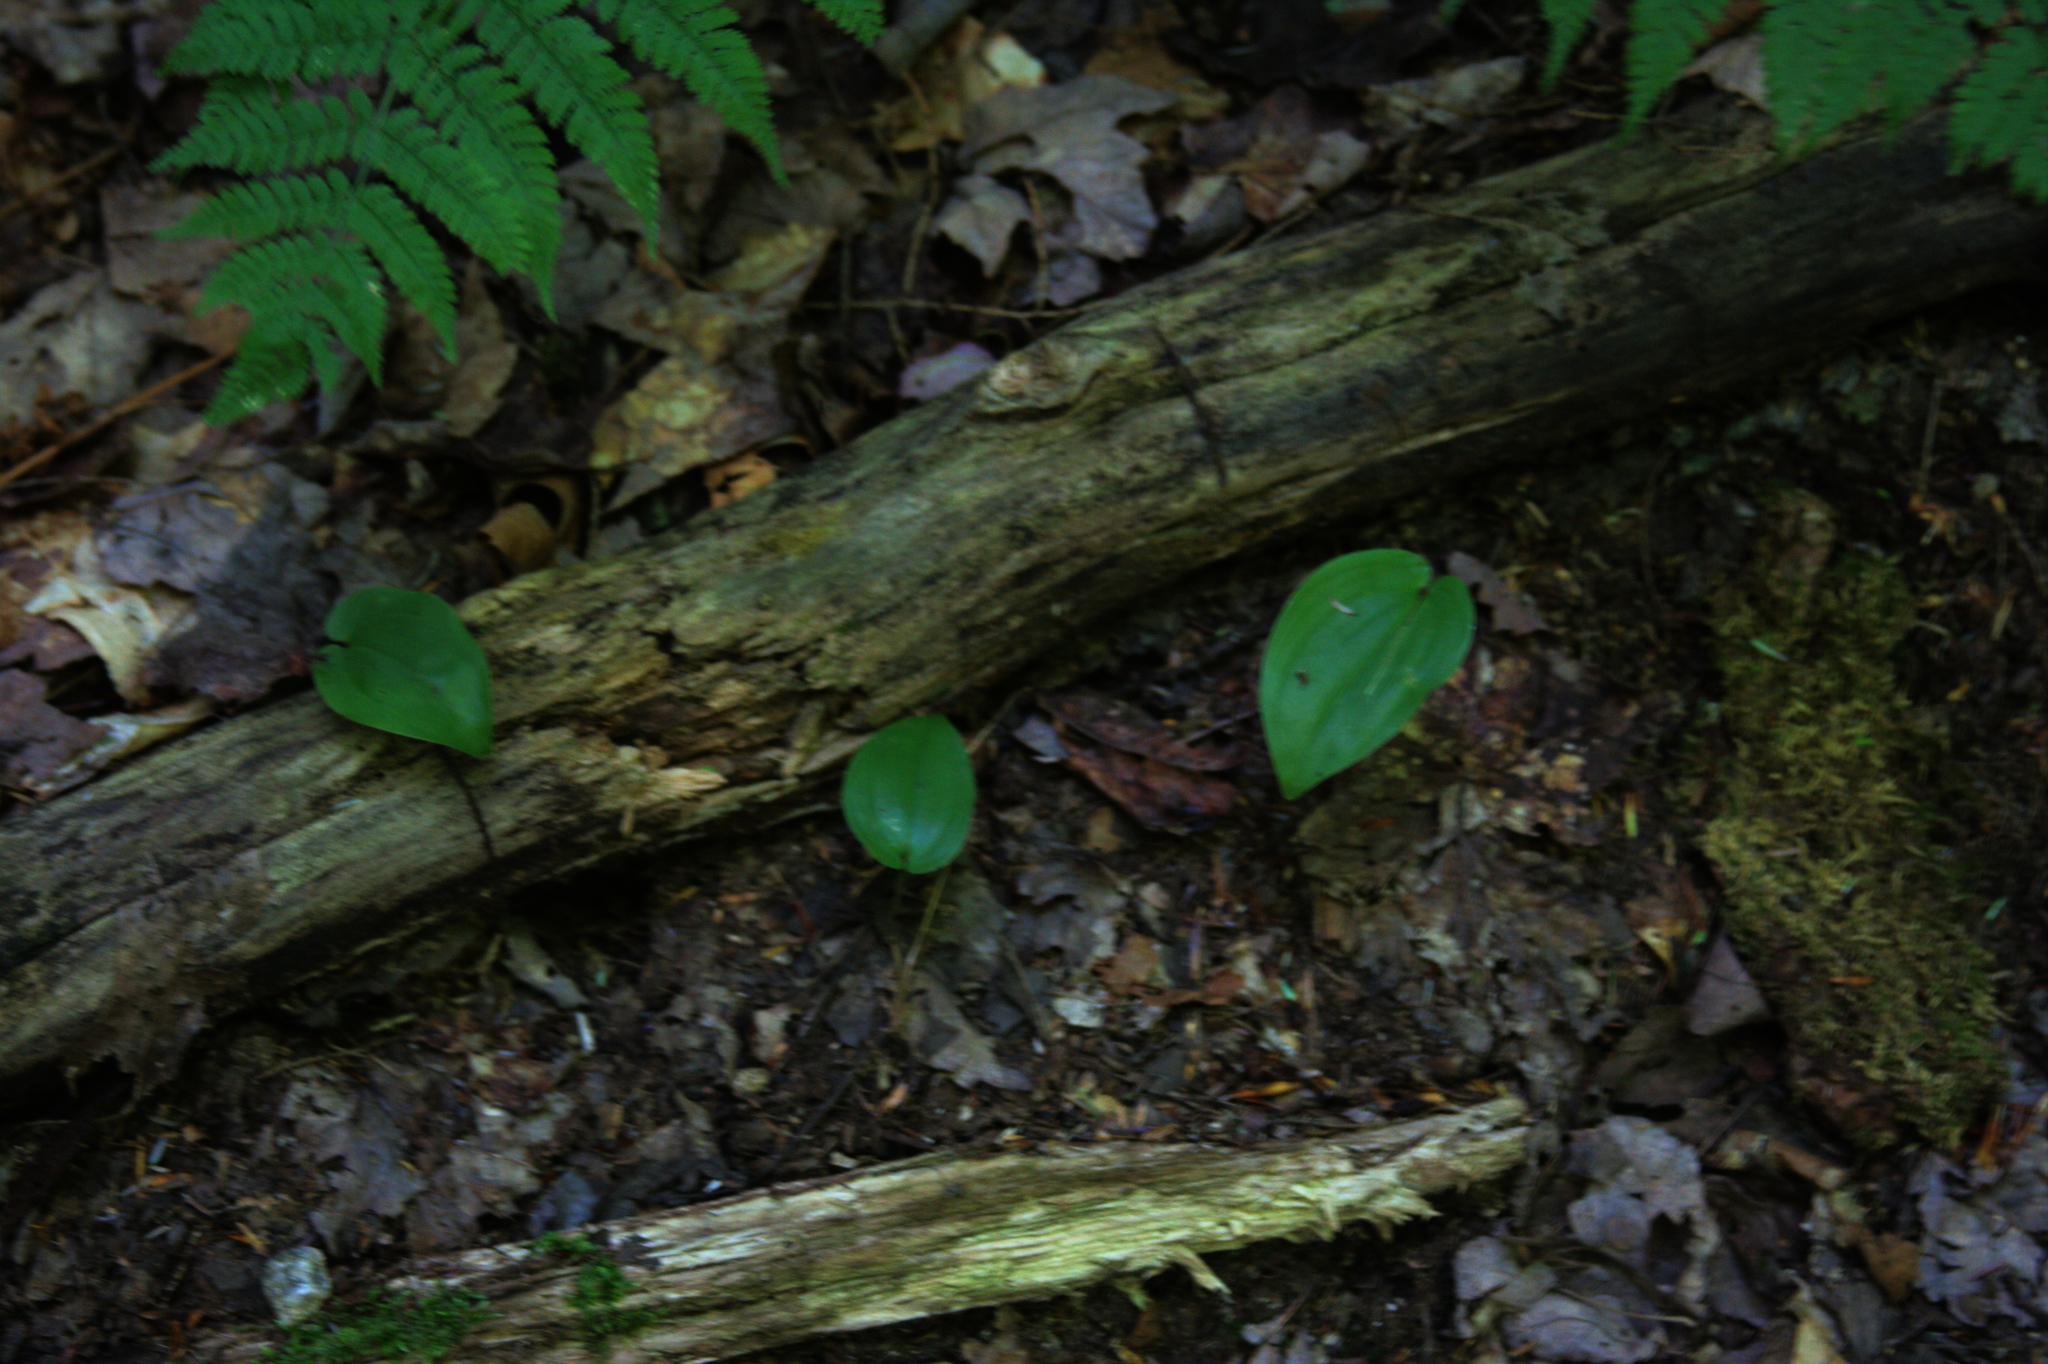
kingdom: Plantae
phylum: Tracheophyta
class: Liliopsida
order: Asparagales
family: Asparagaceae
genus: Maianthemum
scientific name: Maianthemum canadense
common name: False lily-of-the-valley
